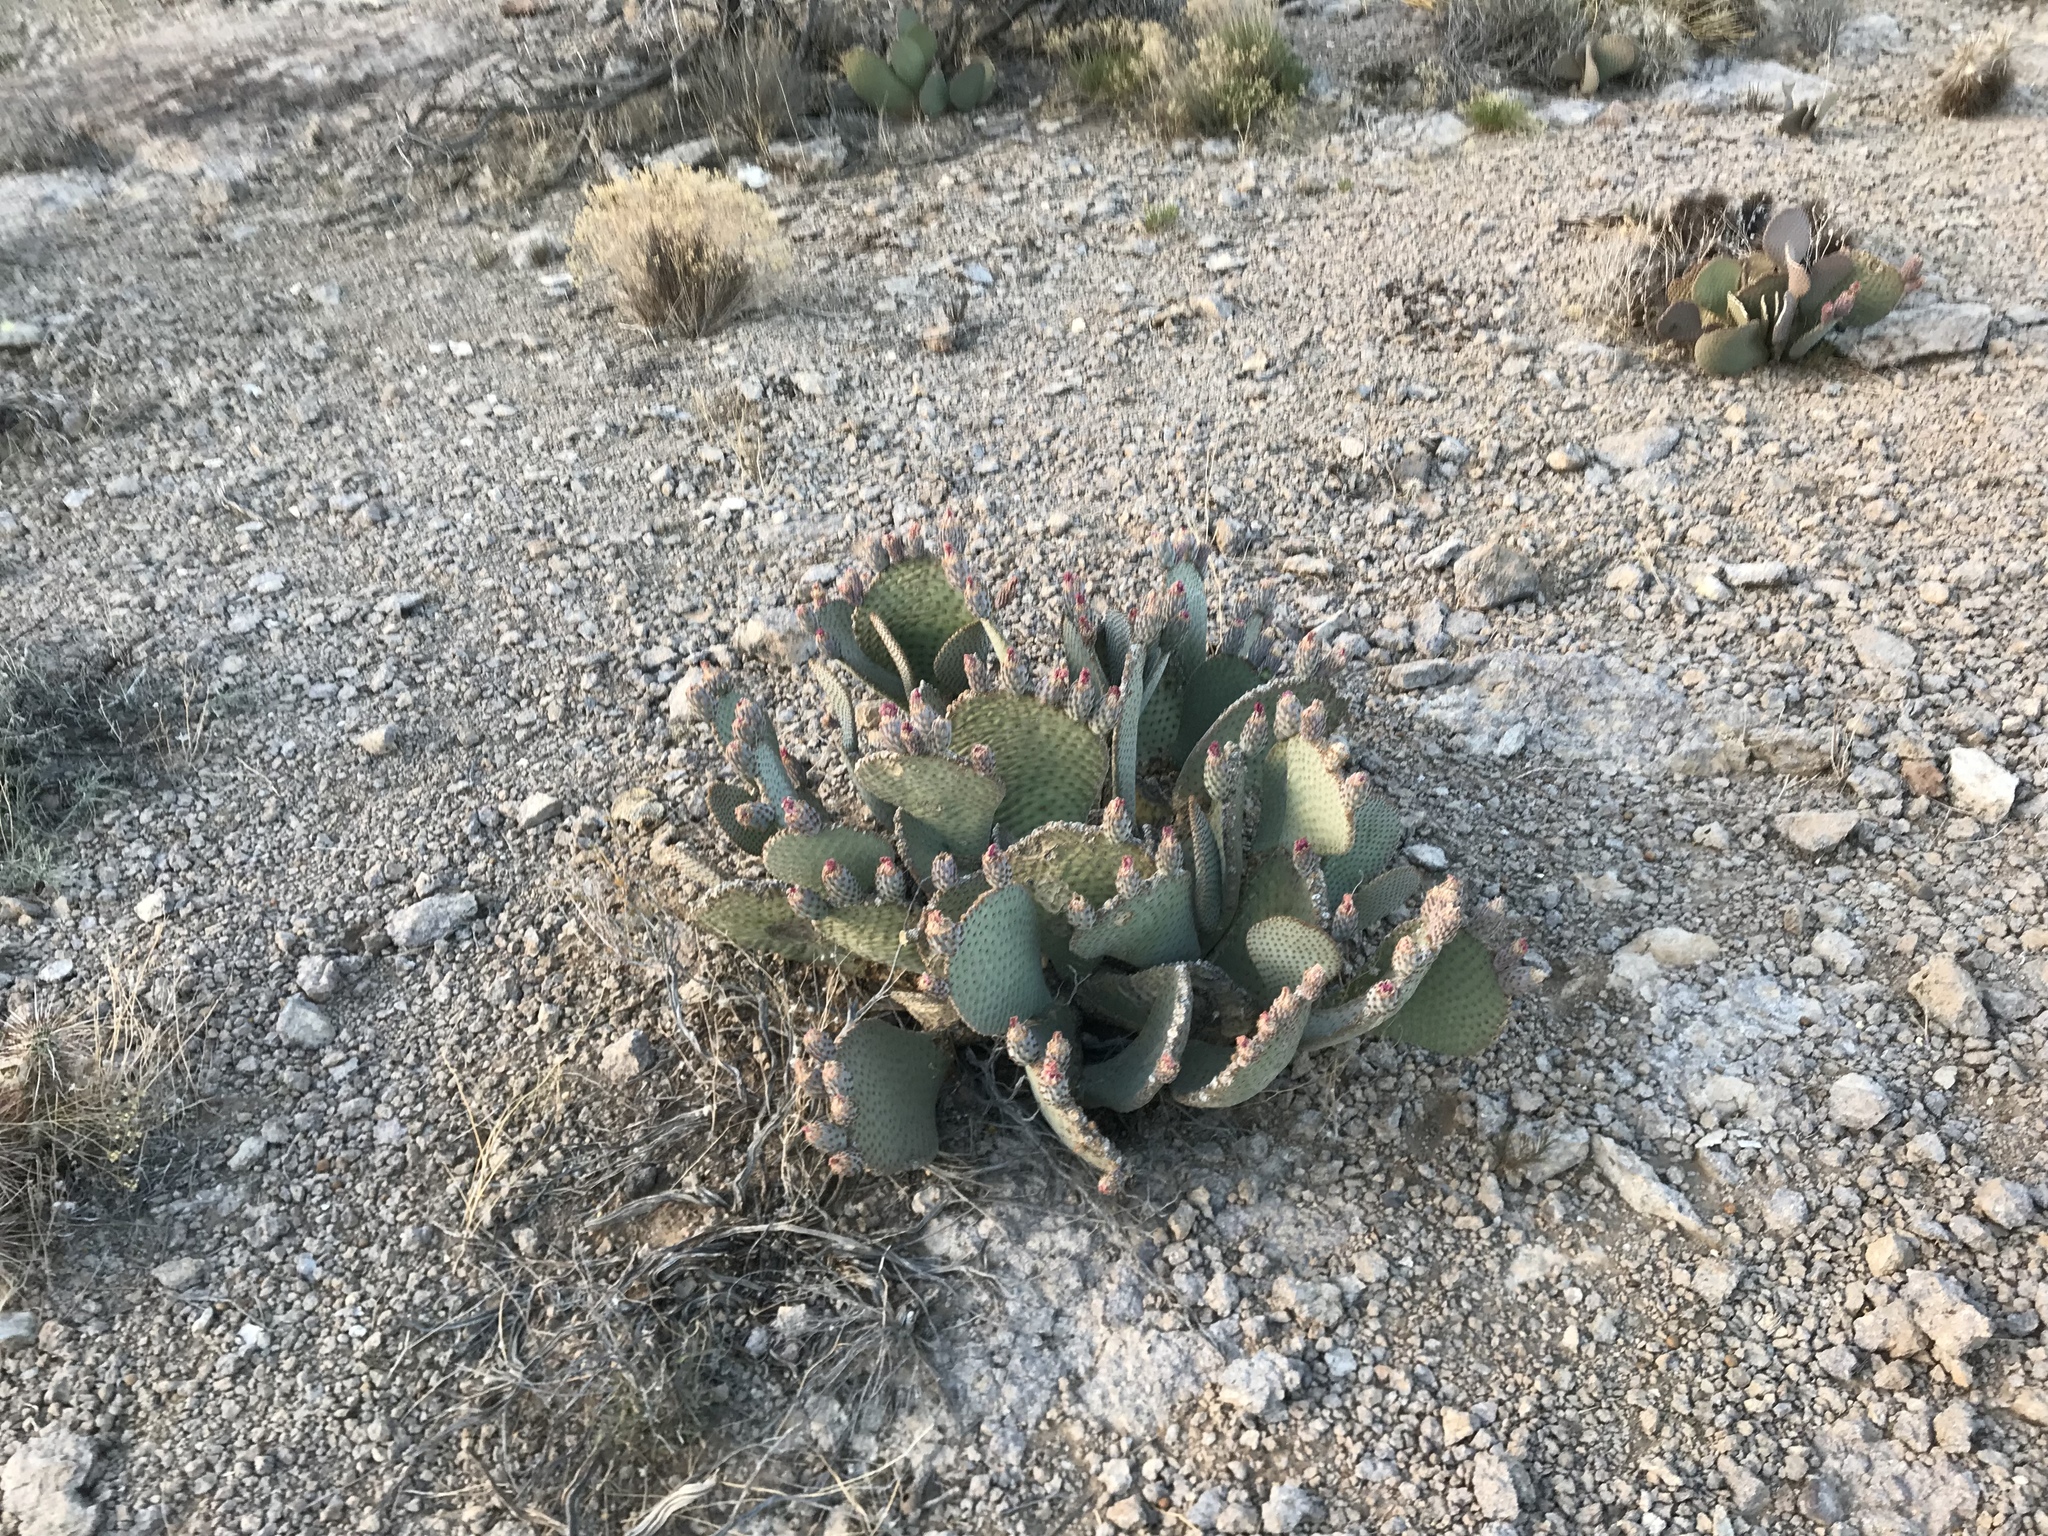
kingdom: Plantae
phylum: Tracheophyta
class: Magnoliopsida
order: Caryophyllales
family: Cactaceae
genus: Opuntia
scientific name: Opuntia basilaris
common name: Beavertail prickly-pear
